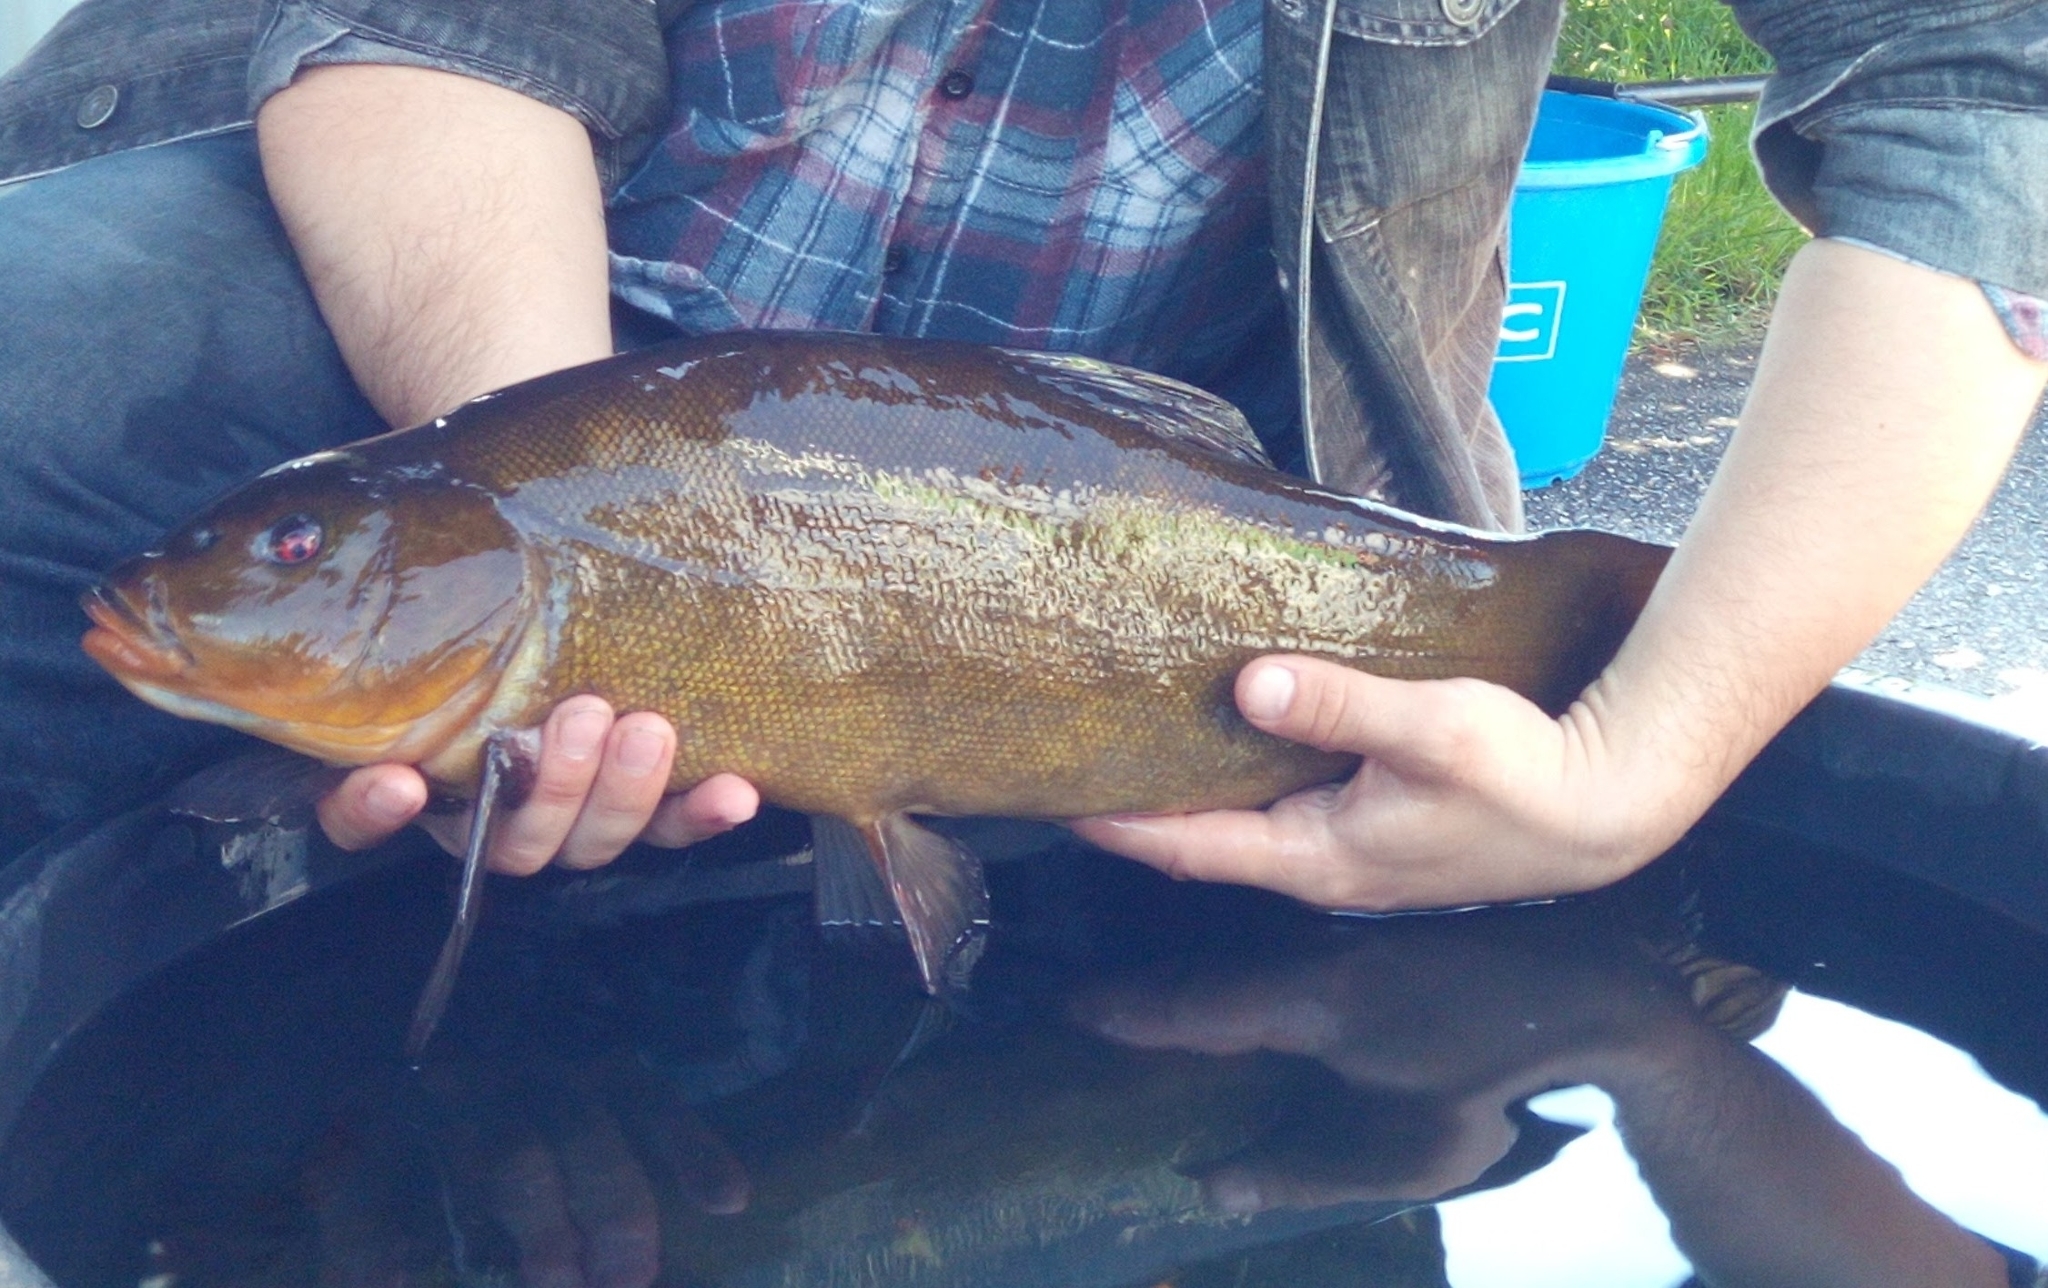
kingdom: Animalia
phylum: Chordata
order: Cypriniformes
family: Cyprinidae
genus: Tinca
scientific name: Tinca tinca
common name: Tench
